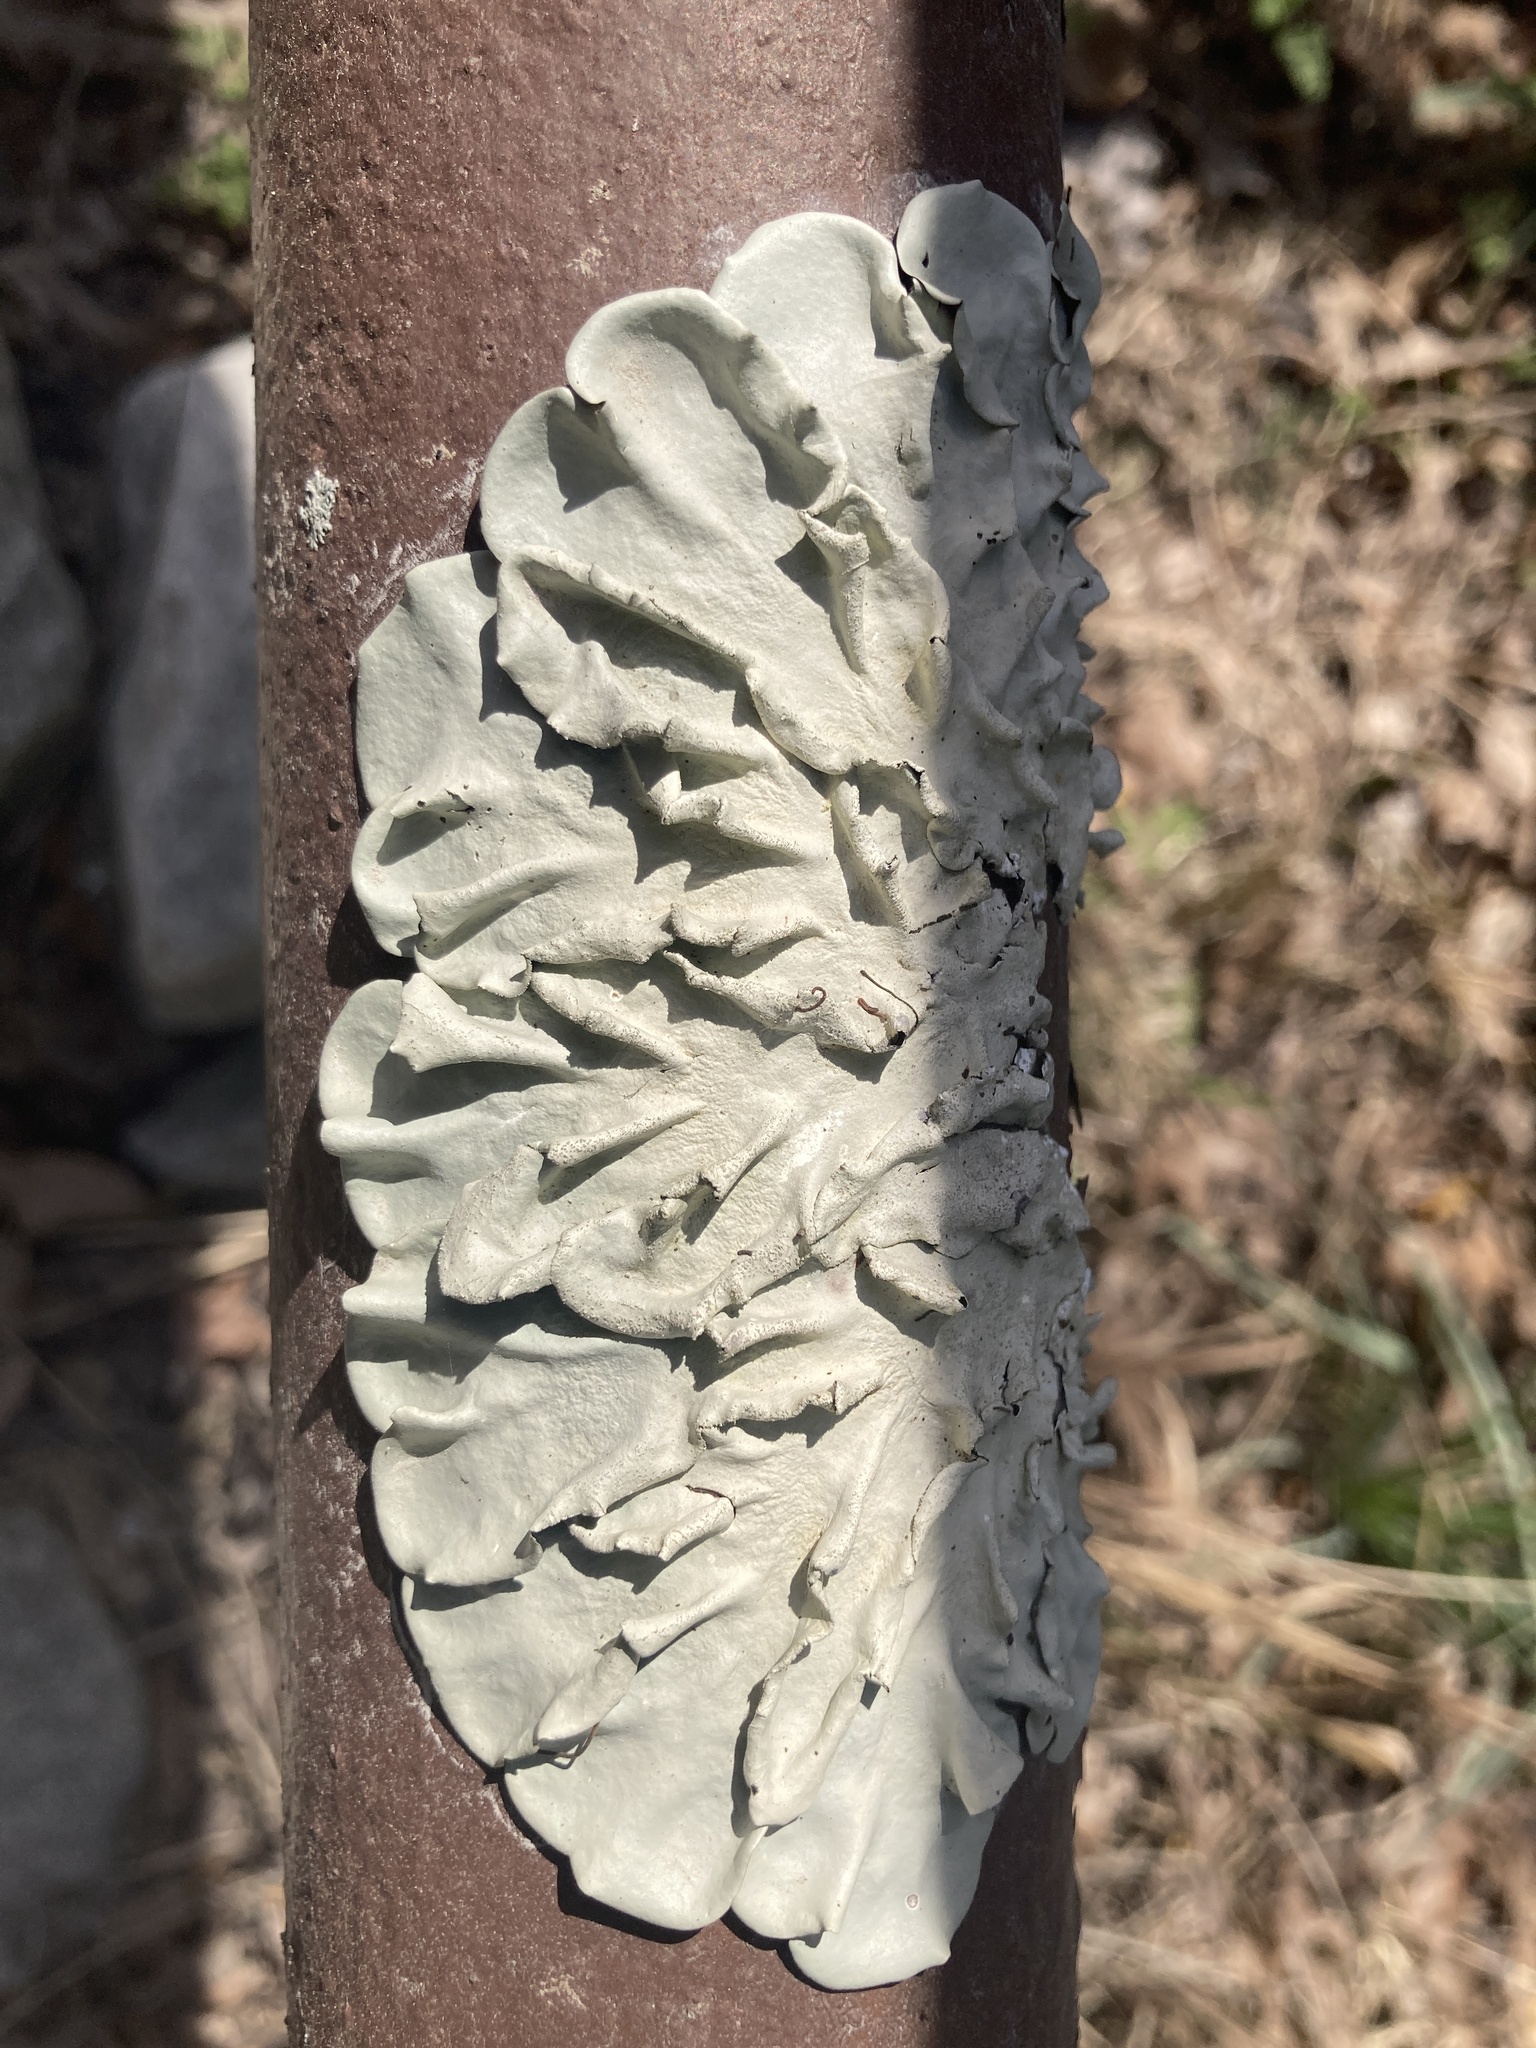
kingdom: Fungi
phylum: Ascomycota
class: Lecanoromycetes
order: Lecanorales
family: Parmeliaceae
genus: Parmotrema
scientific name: Parmotrema tinctorum
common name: Old gray ruffles
